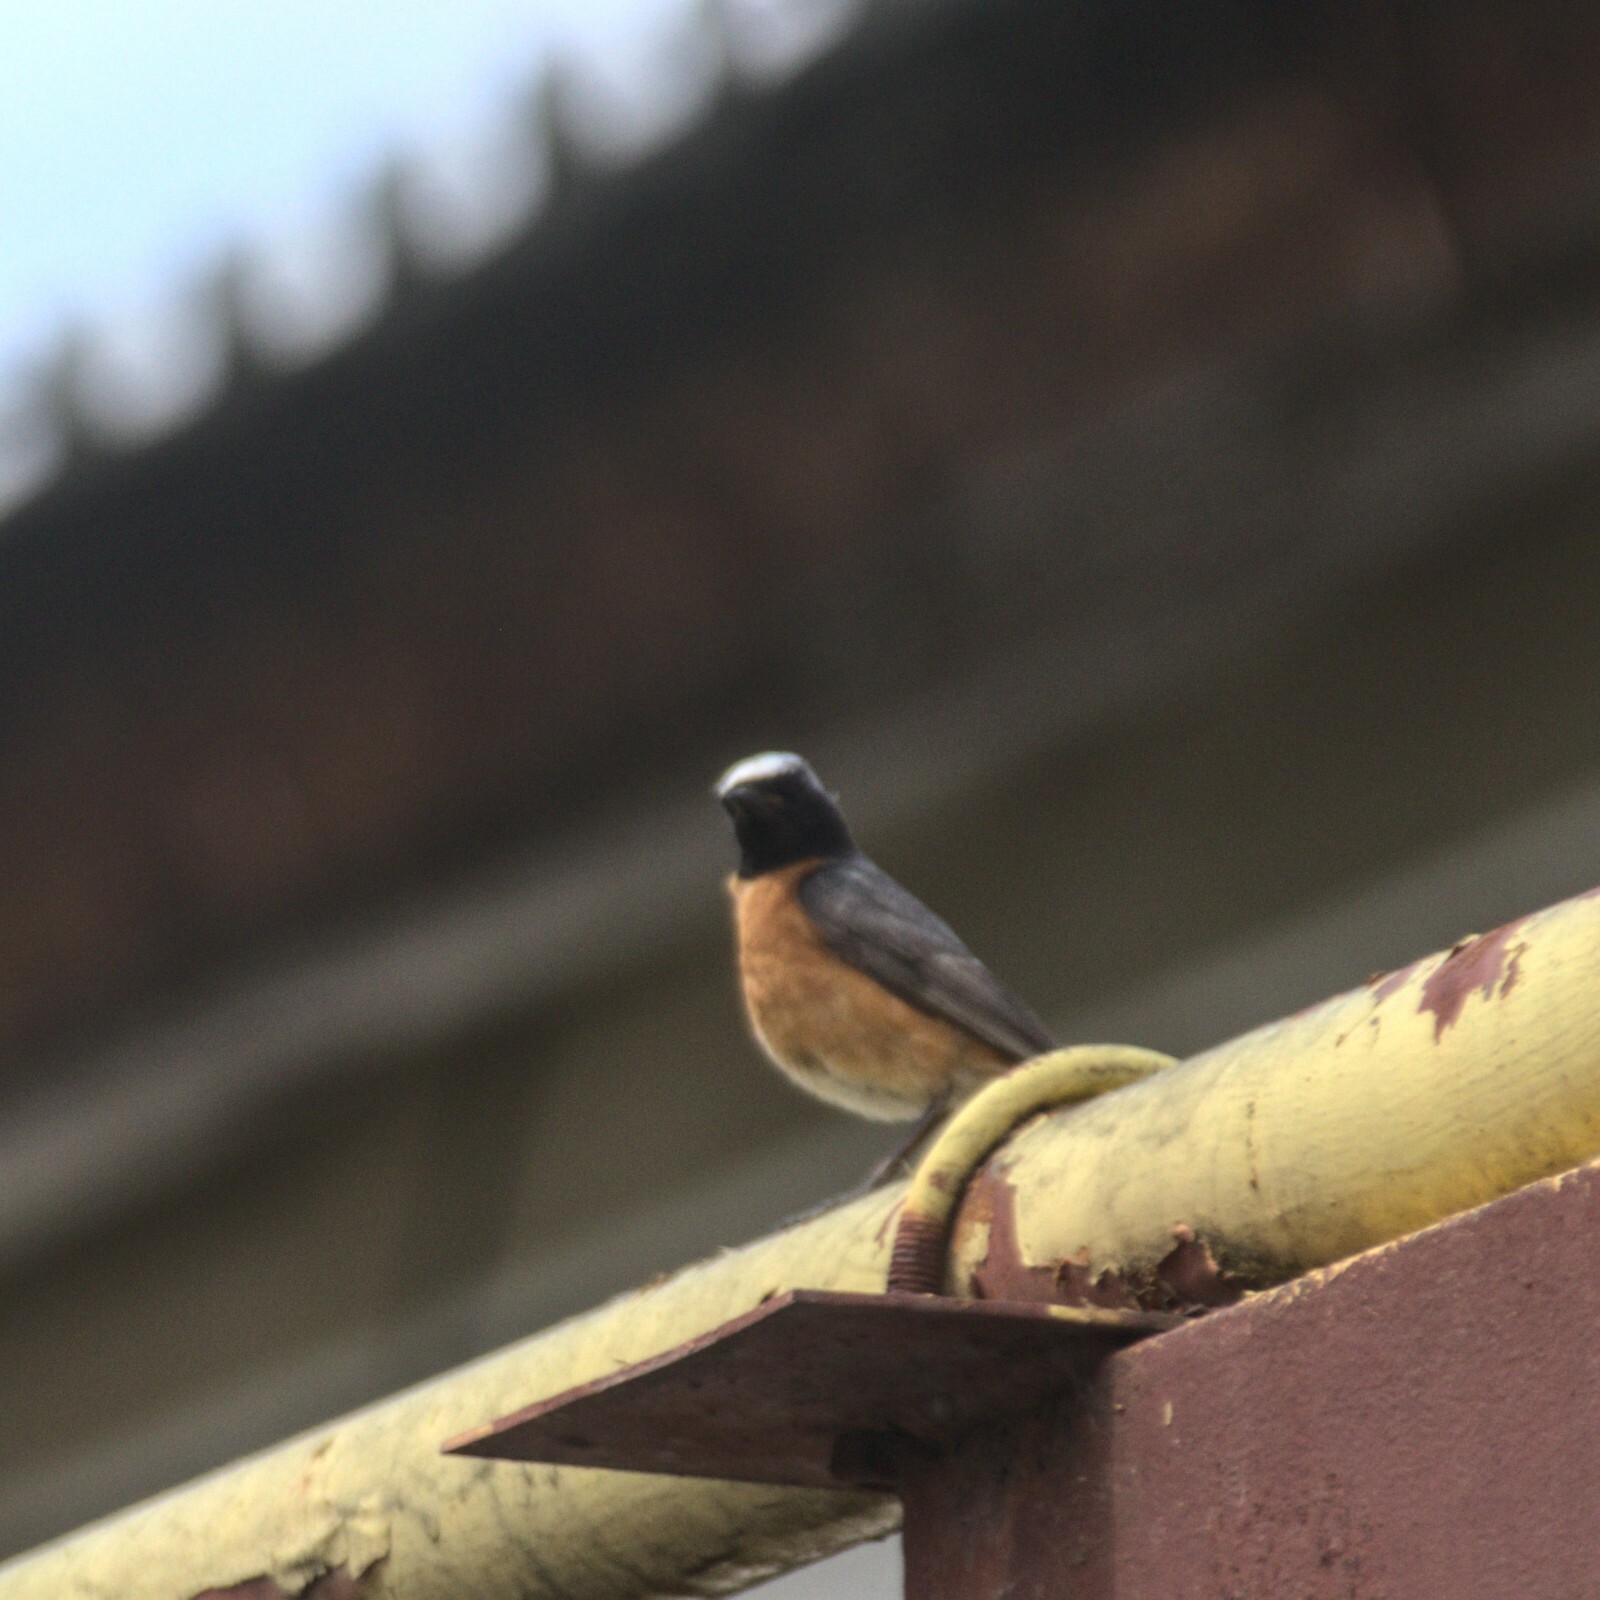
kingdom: Animalia
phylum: Chordata
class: Aves
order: Passeriformes
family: Muscicapidae
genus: Phoenicurus
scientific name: Phoenicurus phoenicurus
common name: Common redstart
